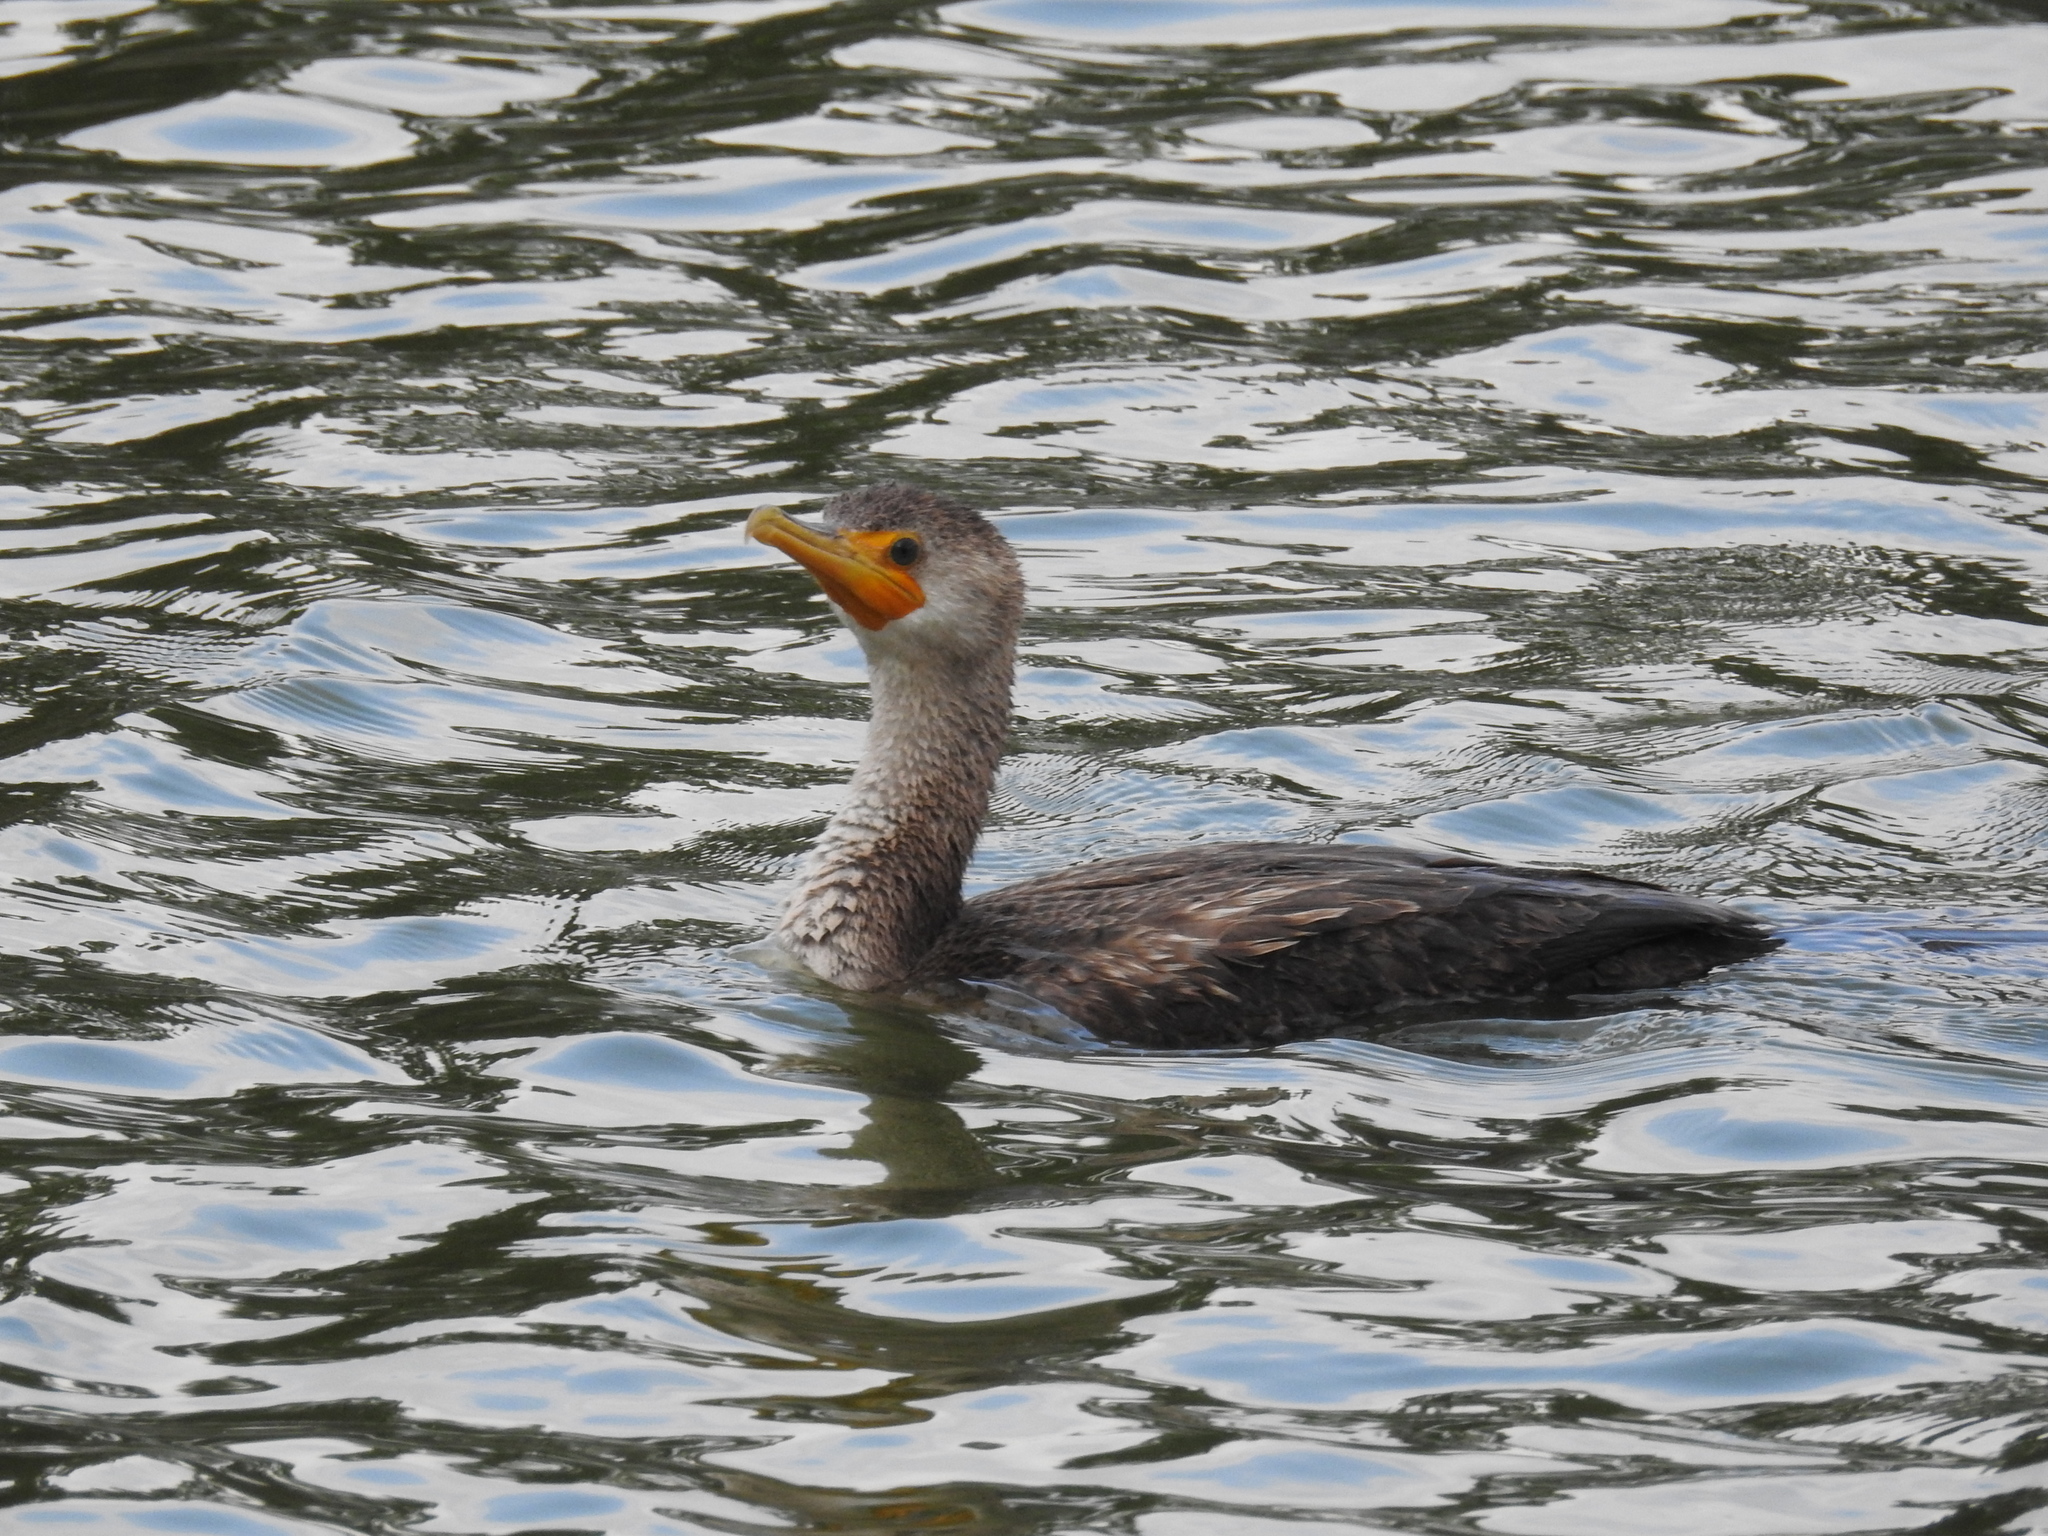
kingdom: Animalia
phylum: Chordata
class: Aves
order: Suliformes
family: Phalacrocoracidae
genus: Phalacrocorax
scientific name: Phalacrocorax auritus
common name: Double-crested cormorant
